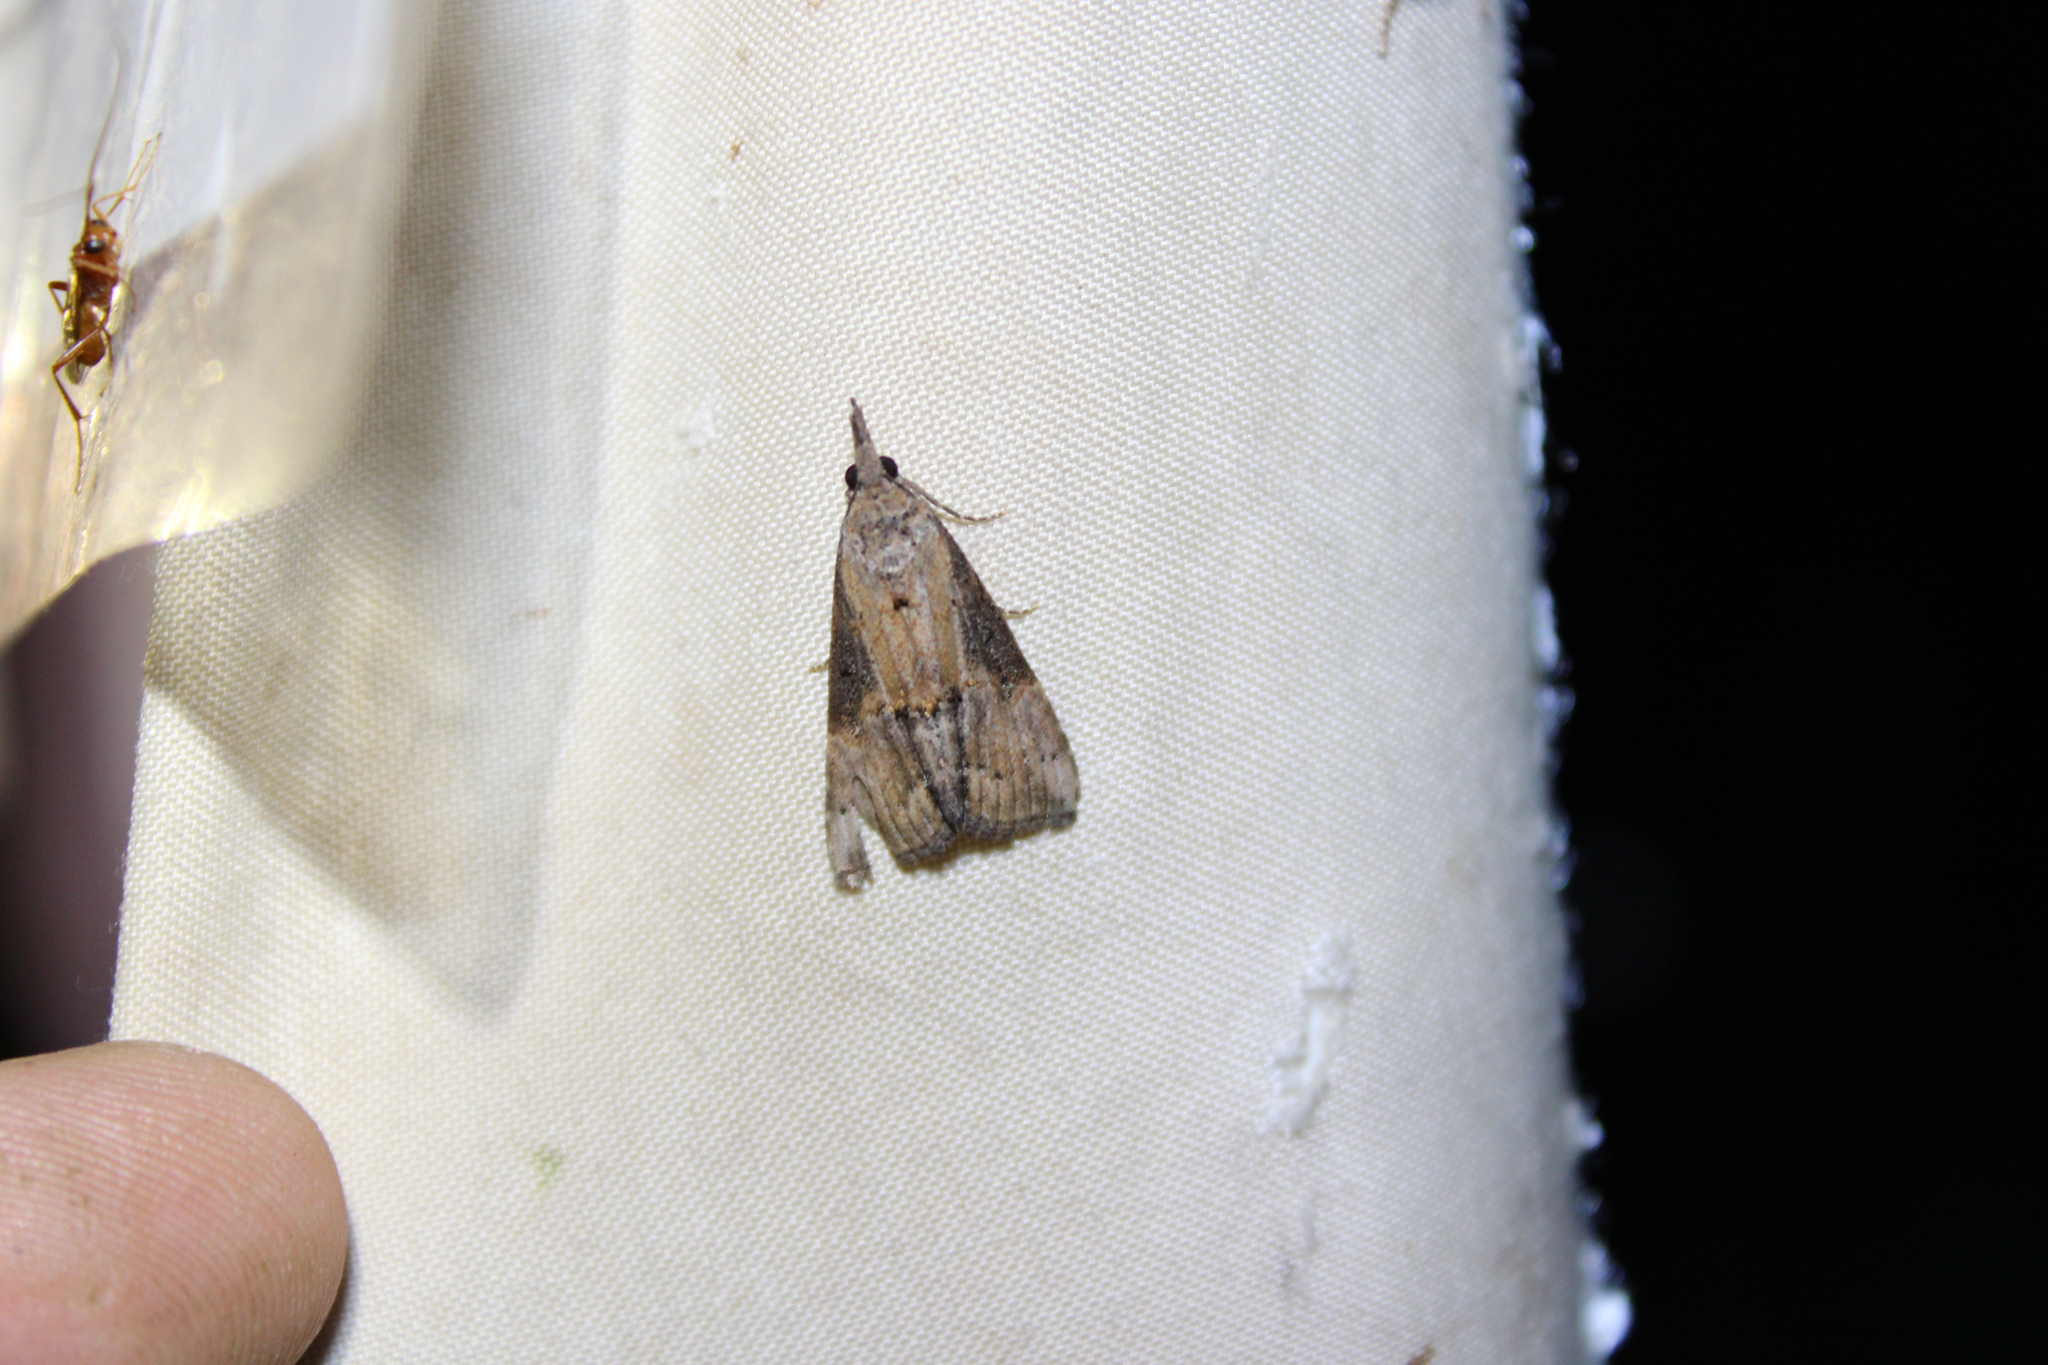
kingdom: Animalia
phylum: Arthropoda
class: Insecta
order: Lepidoptera
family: Erebidae
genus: Hypena
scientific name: Hypena scabra
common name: Green cloverworm
